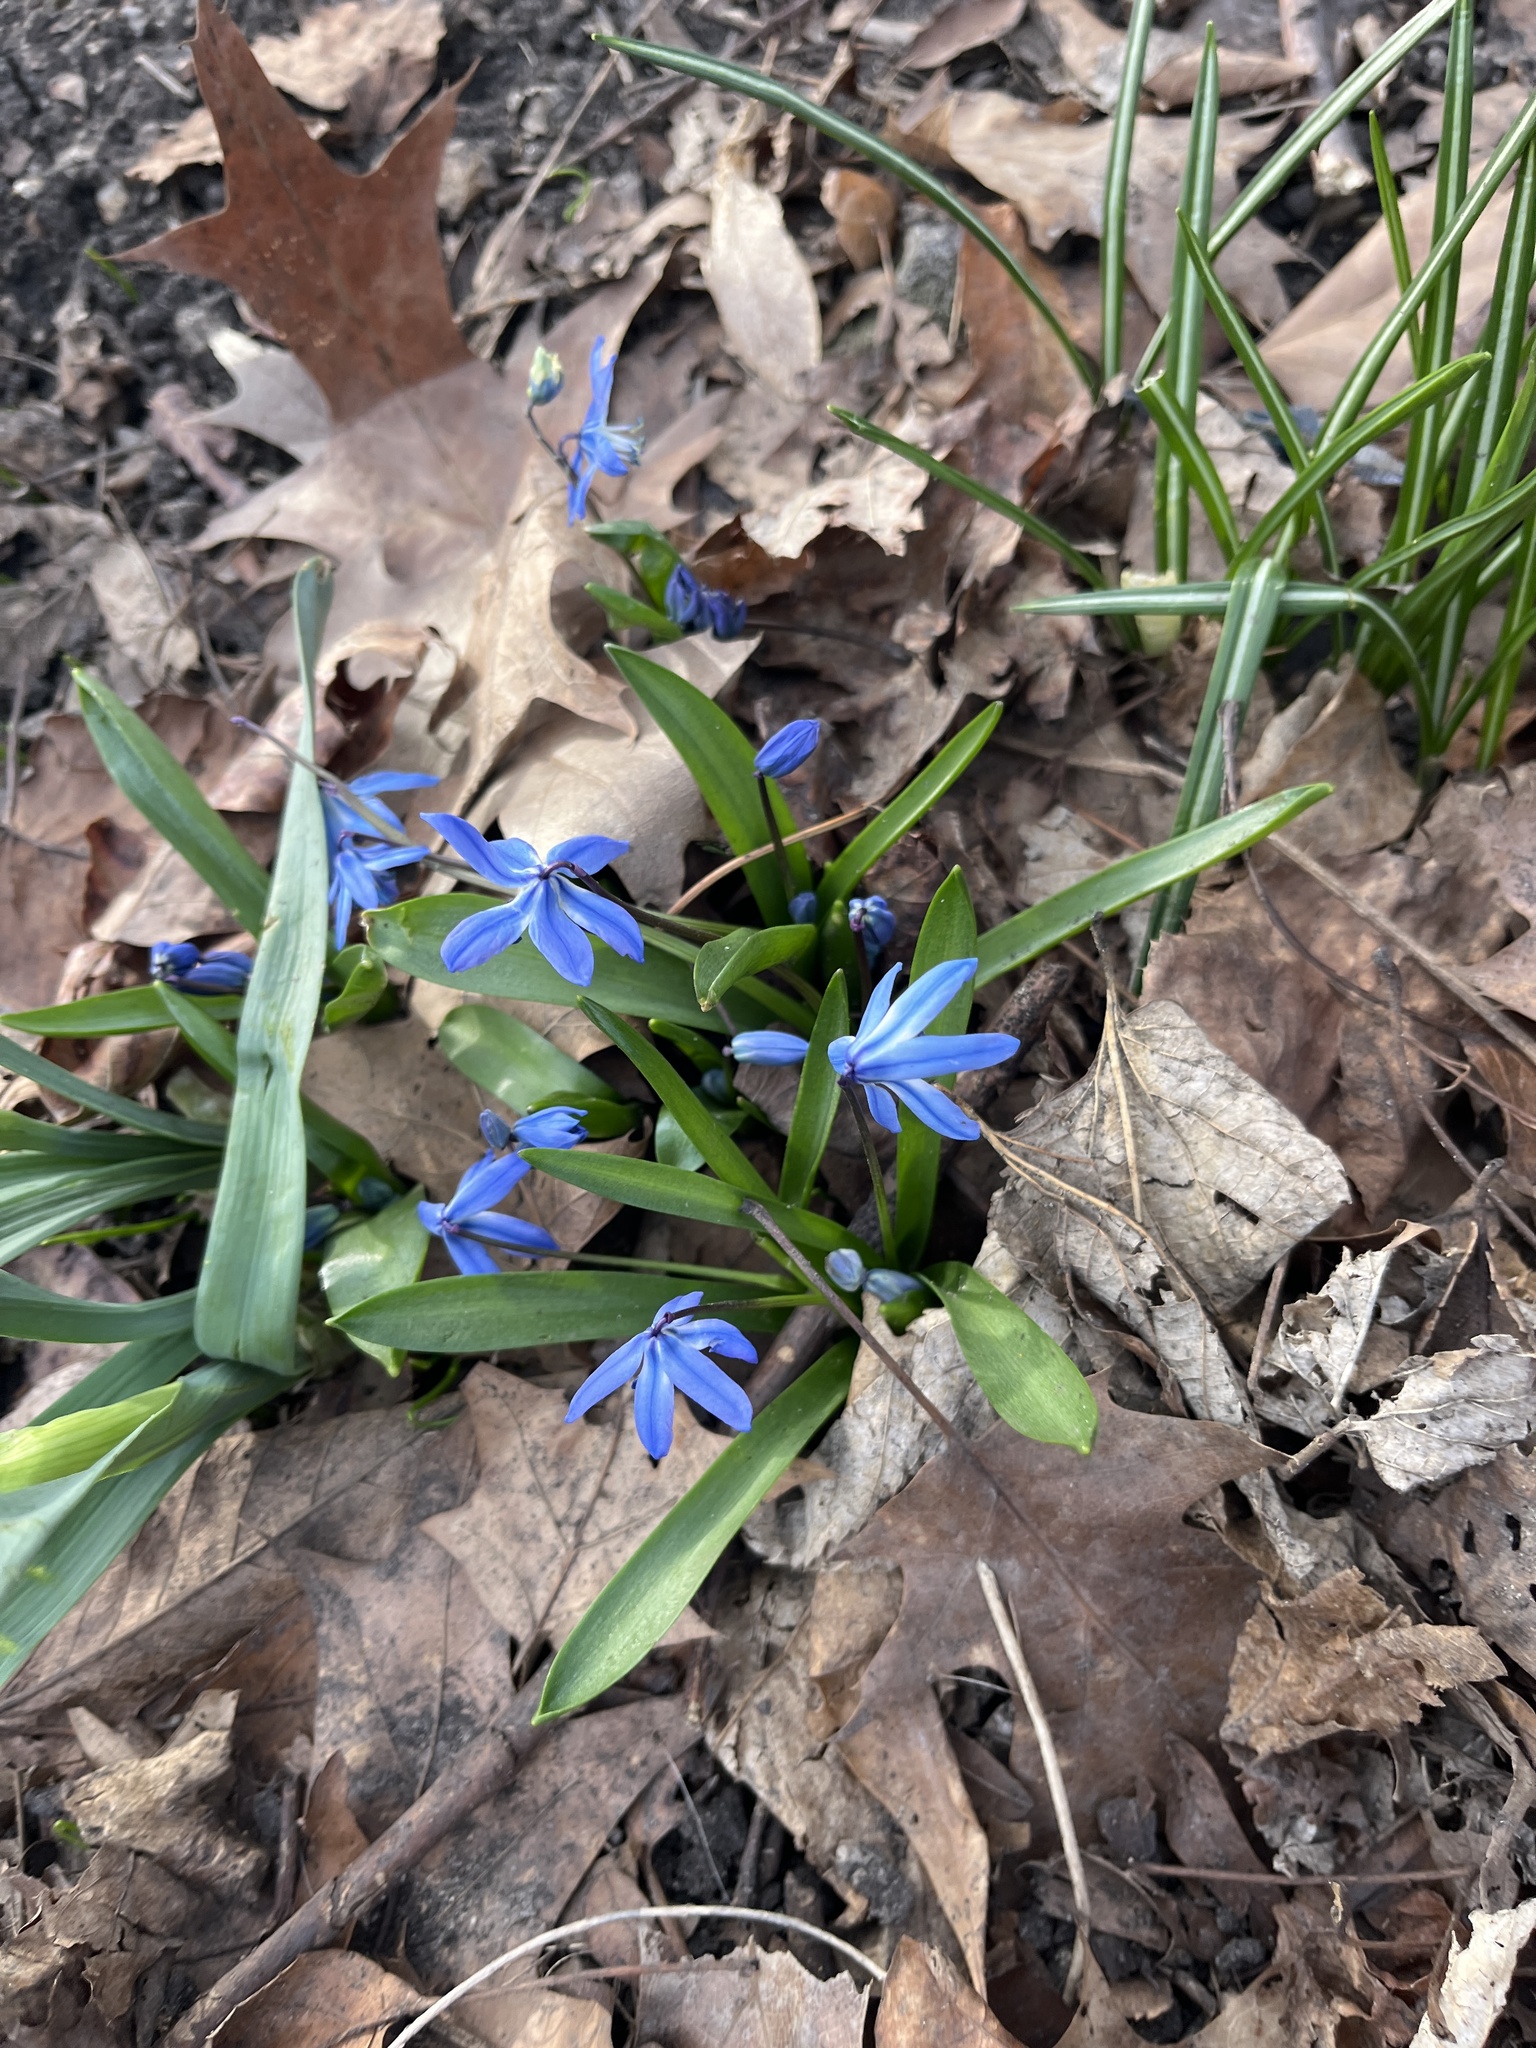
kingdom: Plantae
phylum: Tracheophyta
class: Liliopsida
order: Asparagales
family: Asparagaceae
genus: Scilla
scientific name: Scilla siberica
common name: Siberian squill
